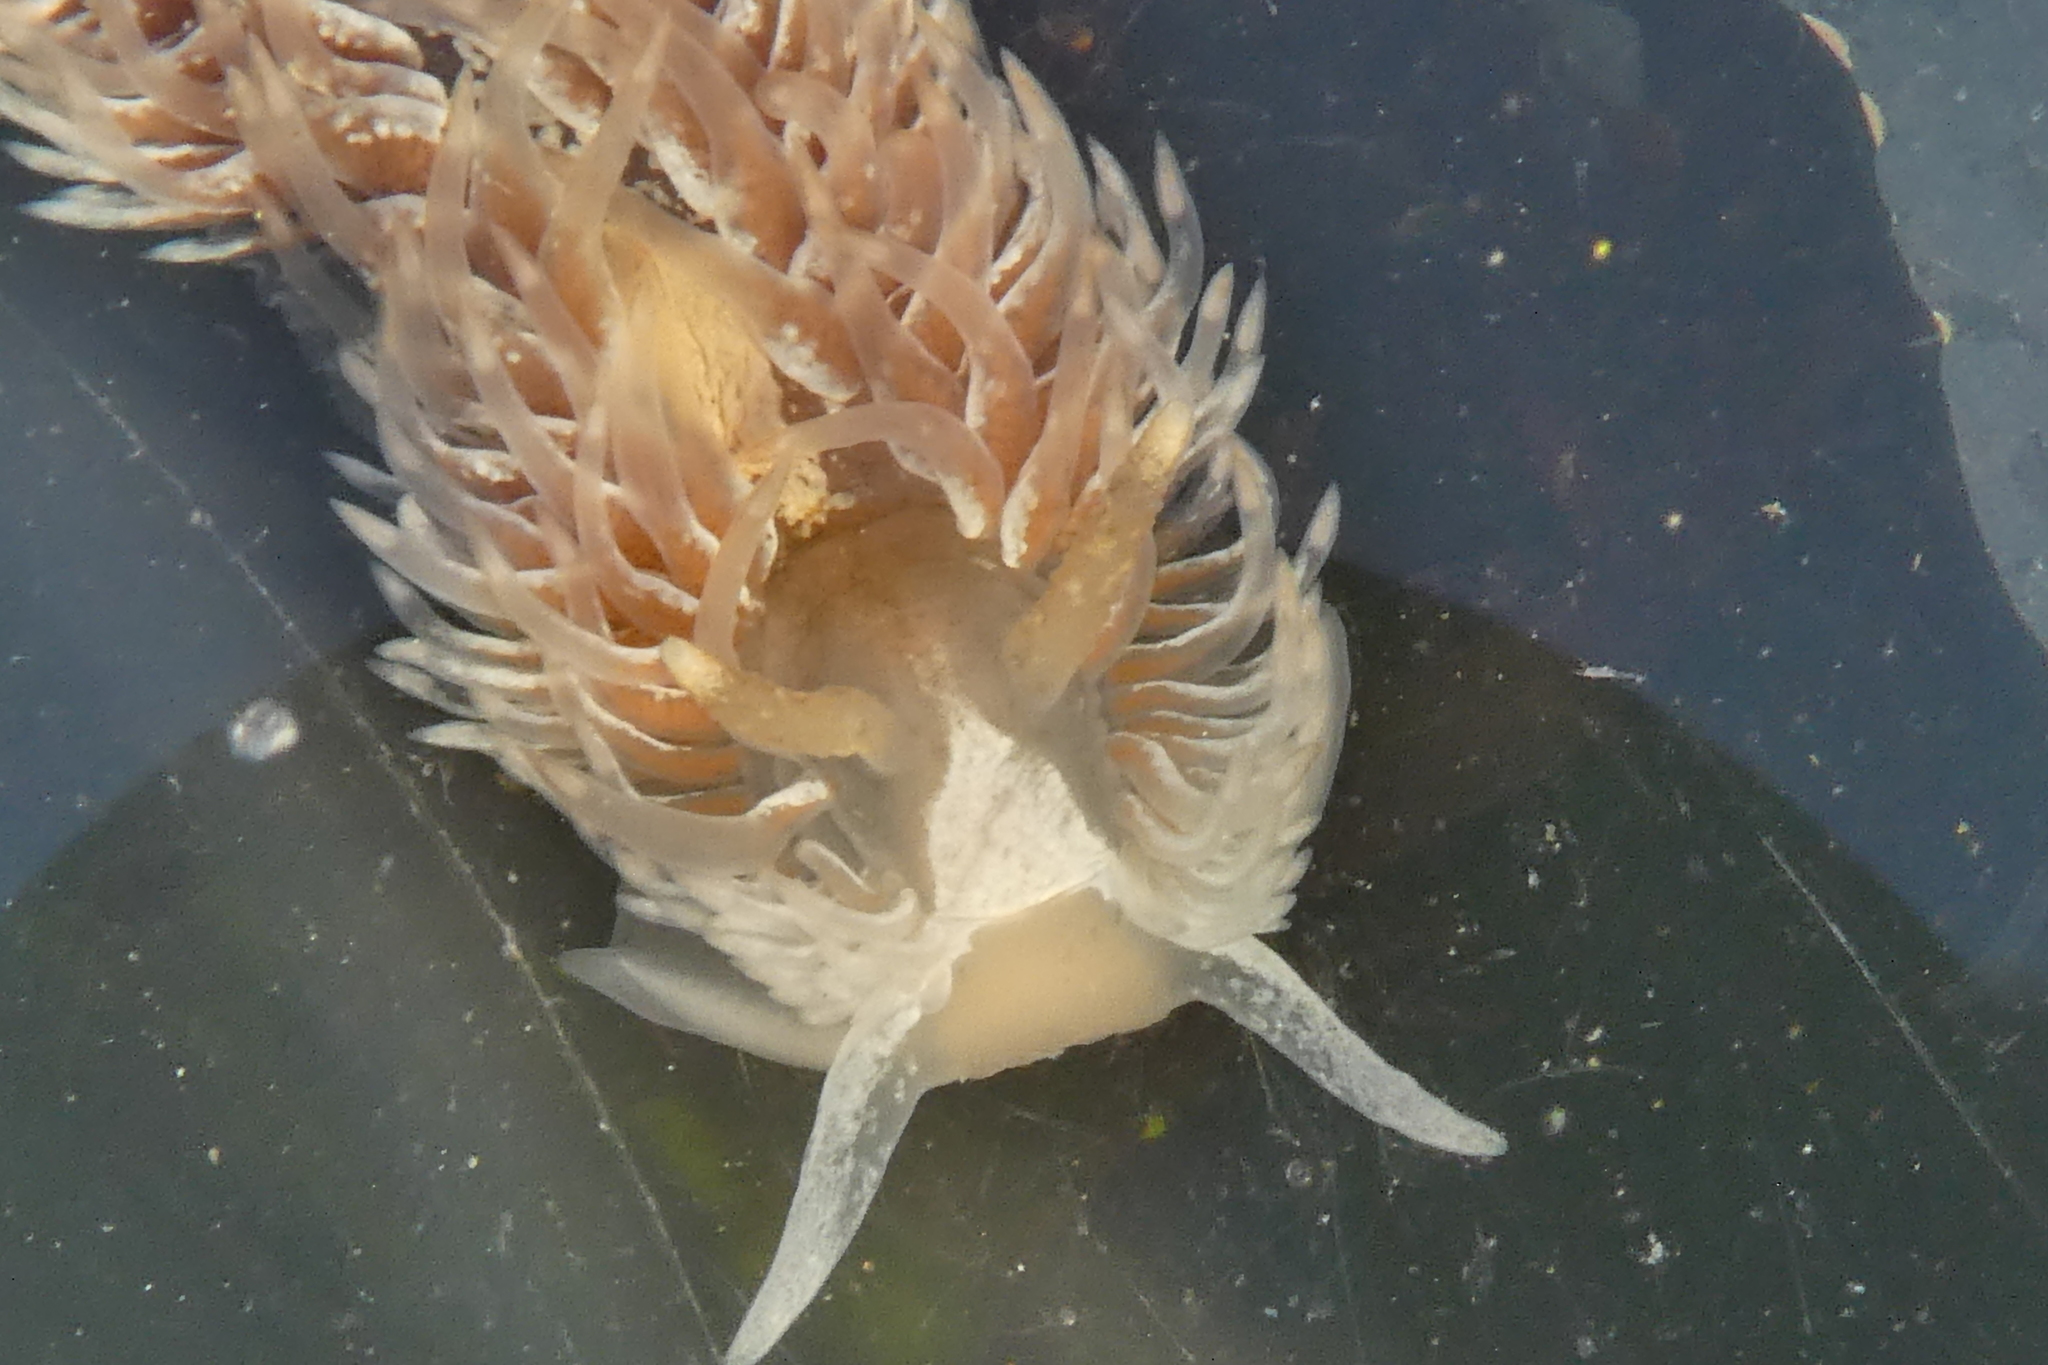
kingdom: Animalia
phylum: Mollusca
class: Gastropoda
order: Nudibranchia
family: Aeolidiidae
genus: Aeolidia
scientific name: Aeolidia loui
